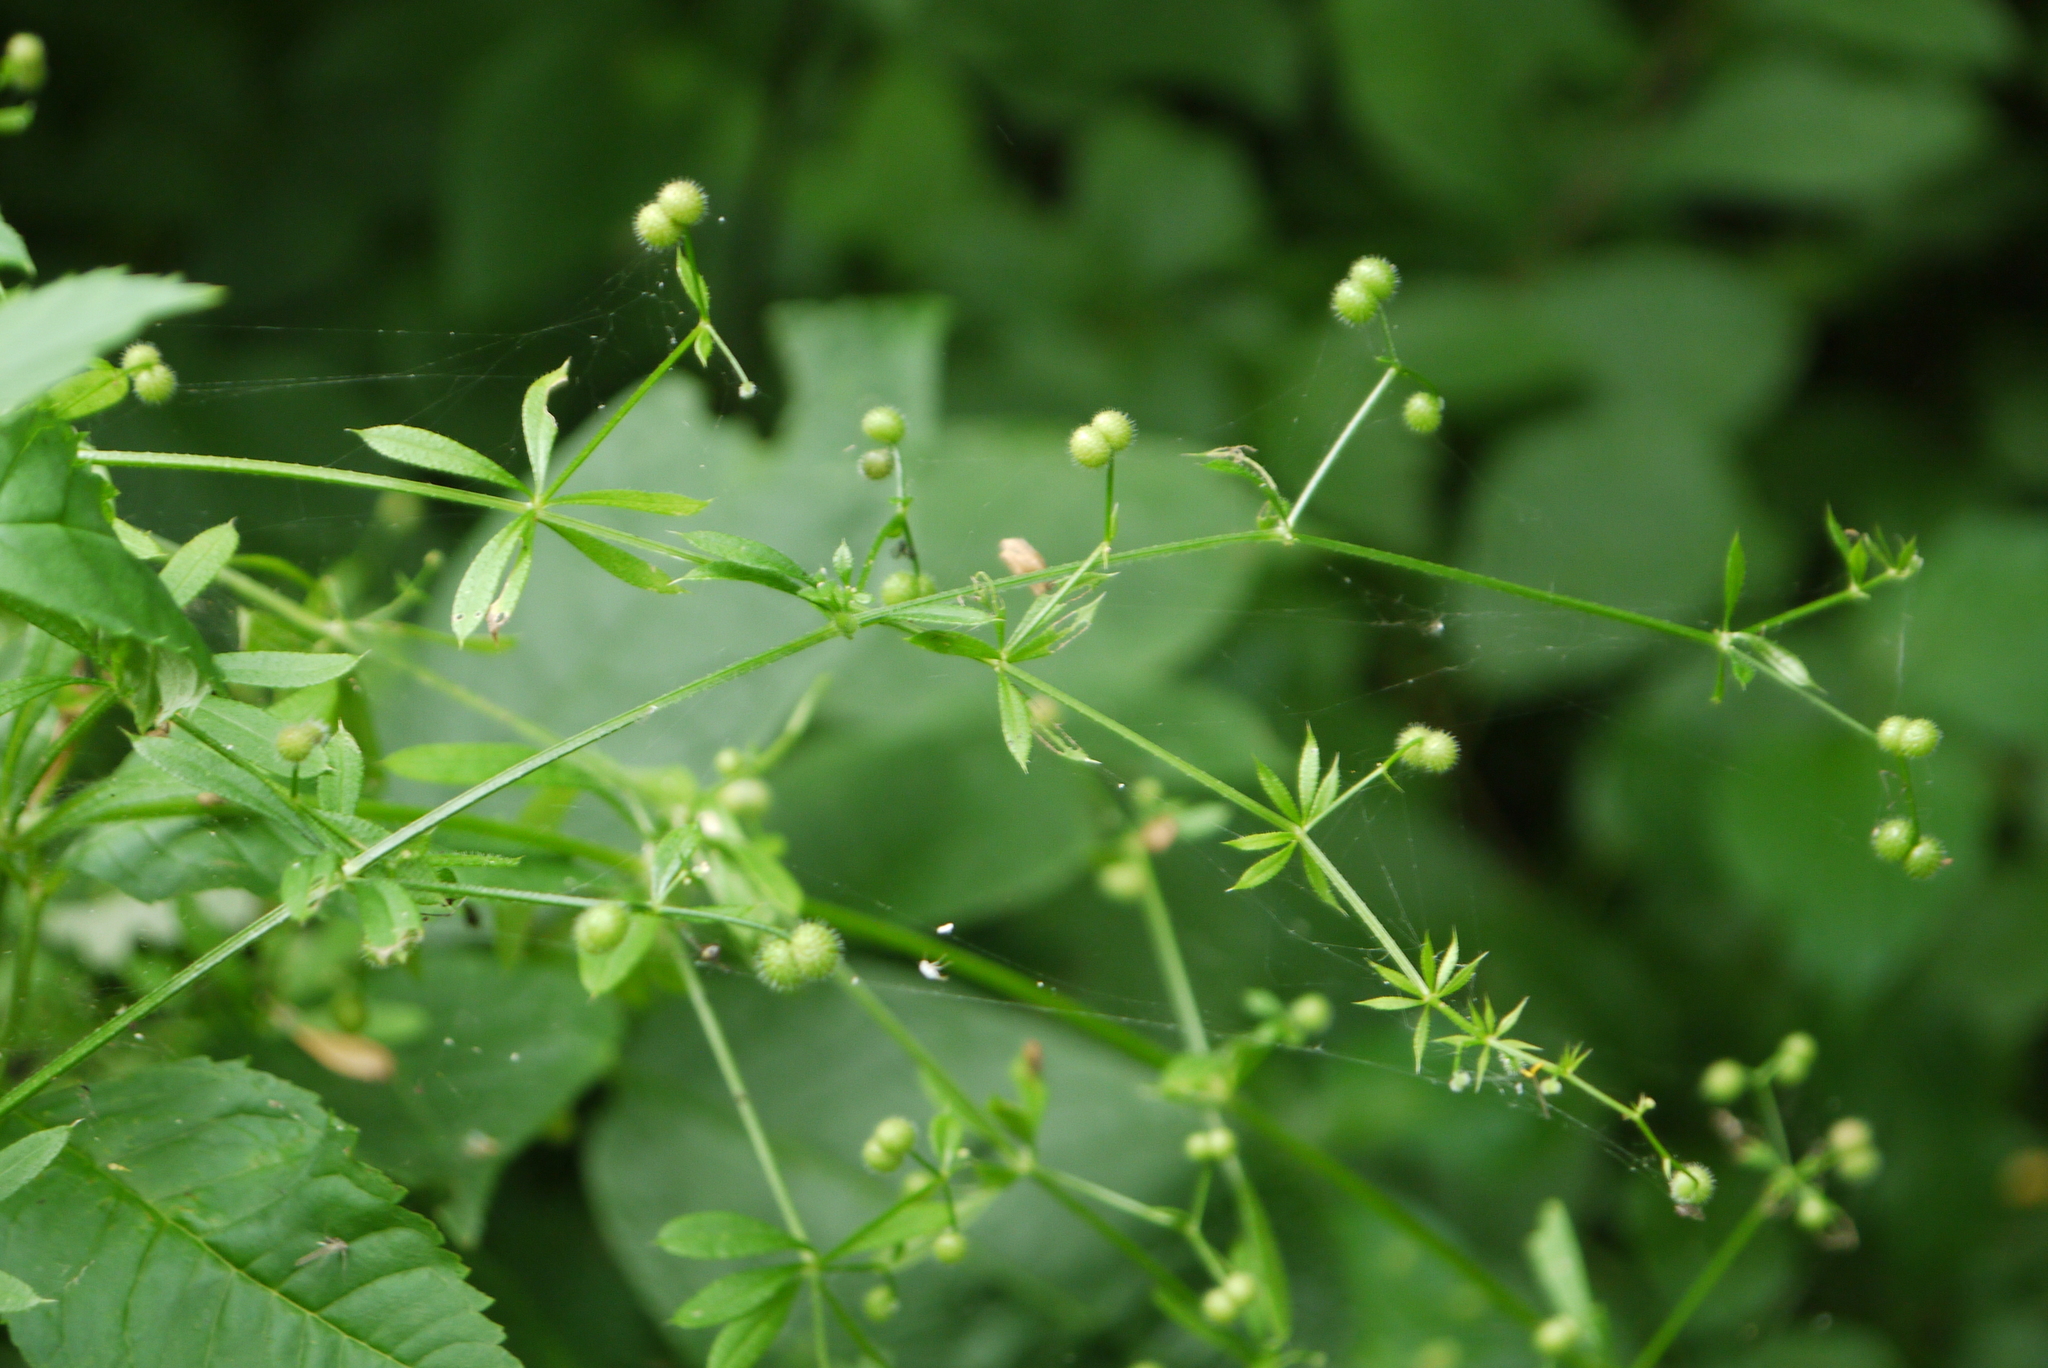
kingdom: Plantae
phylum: Tracheophyta
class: Magnoliopsida
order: Gentianales
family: Rubiaceae
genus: Galium
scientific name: Galium aparine
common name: Cleavers
